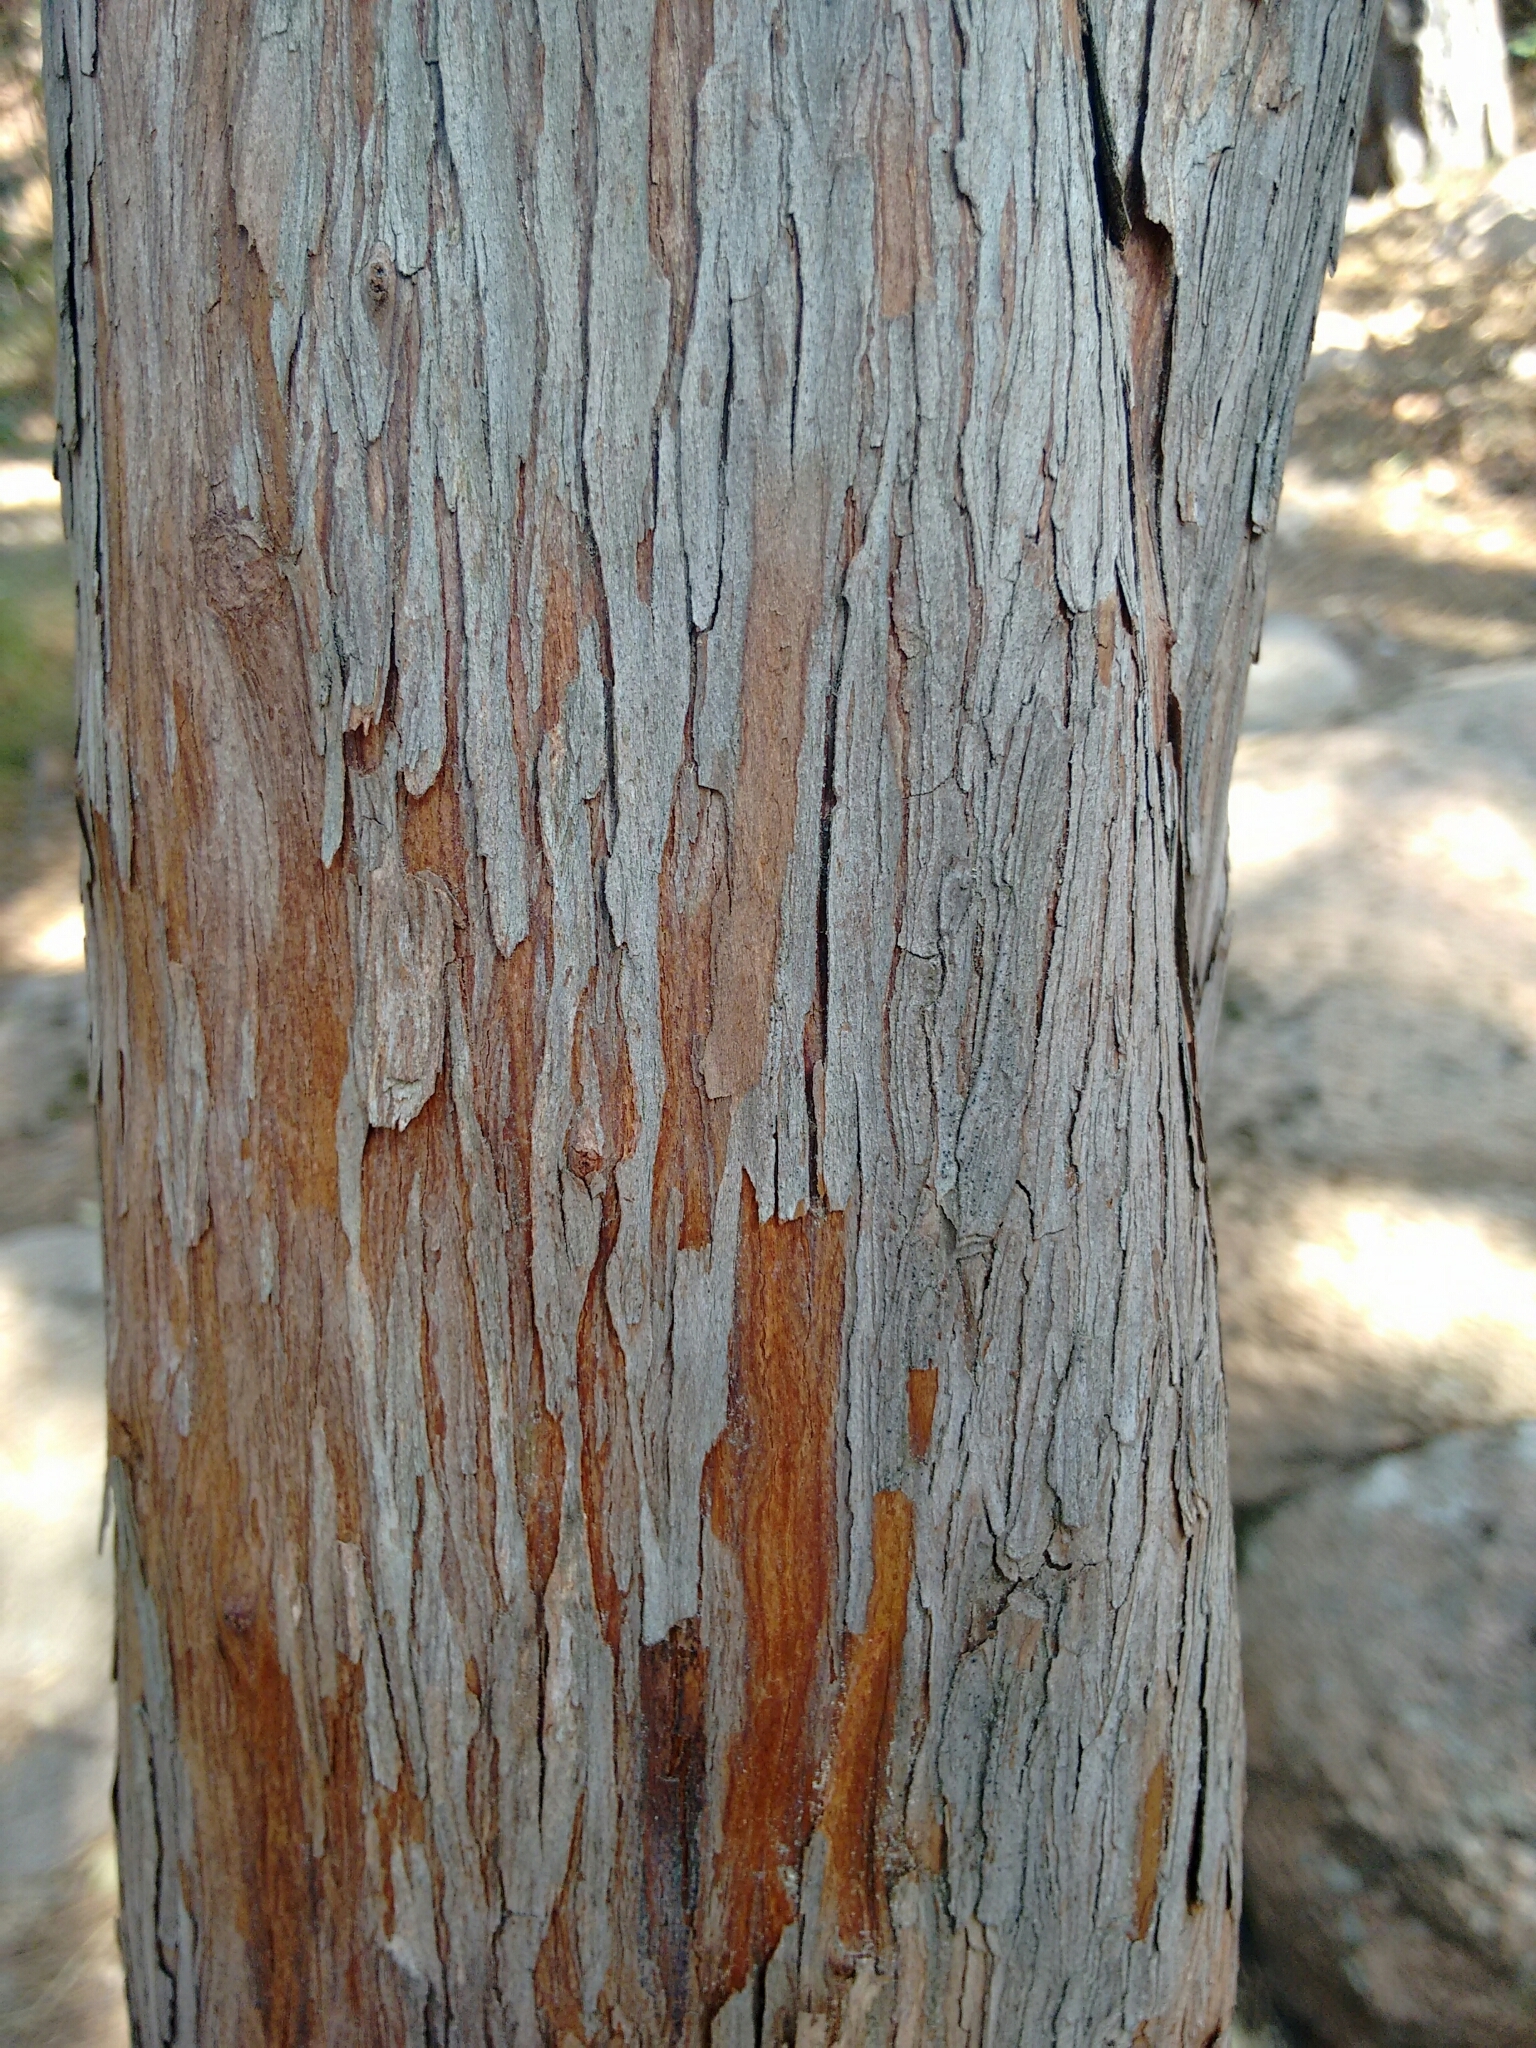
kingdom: Plantae
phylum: Tracheophyta
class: Magnoliopsida
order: Ericales
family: Ericaceae
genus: Arbutus
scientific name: Arbutus unedo
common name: Strawberry-tree
